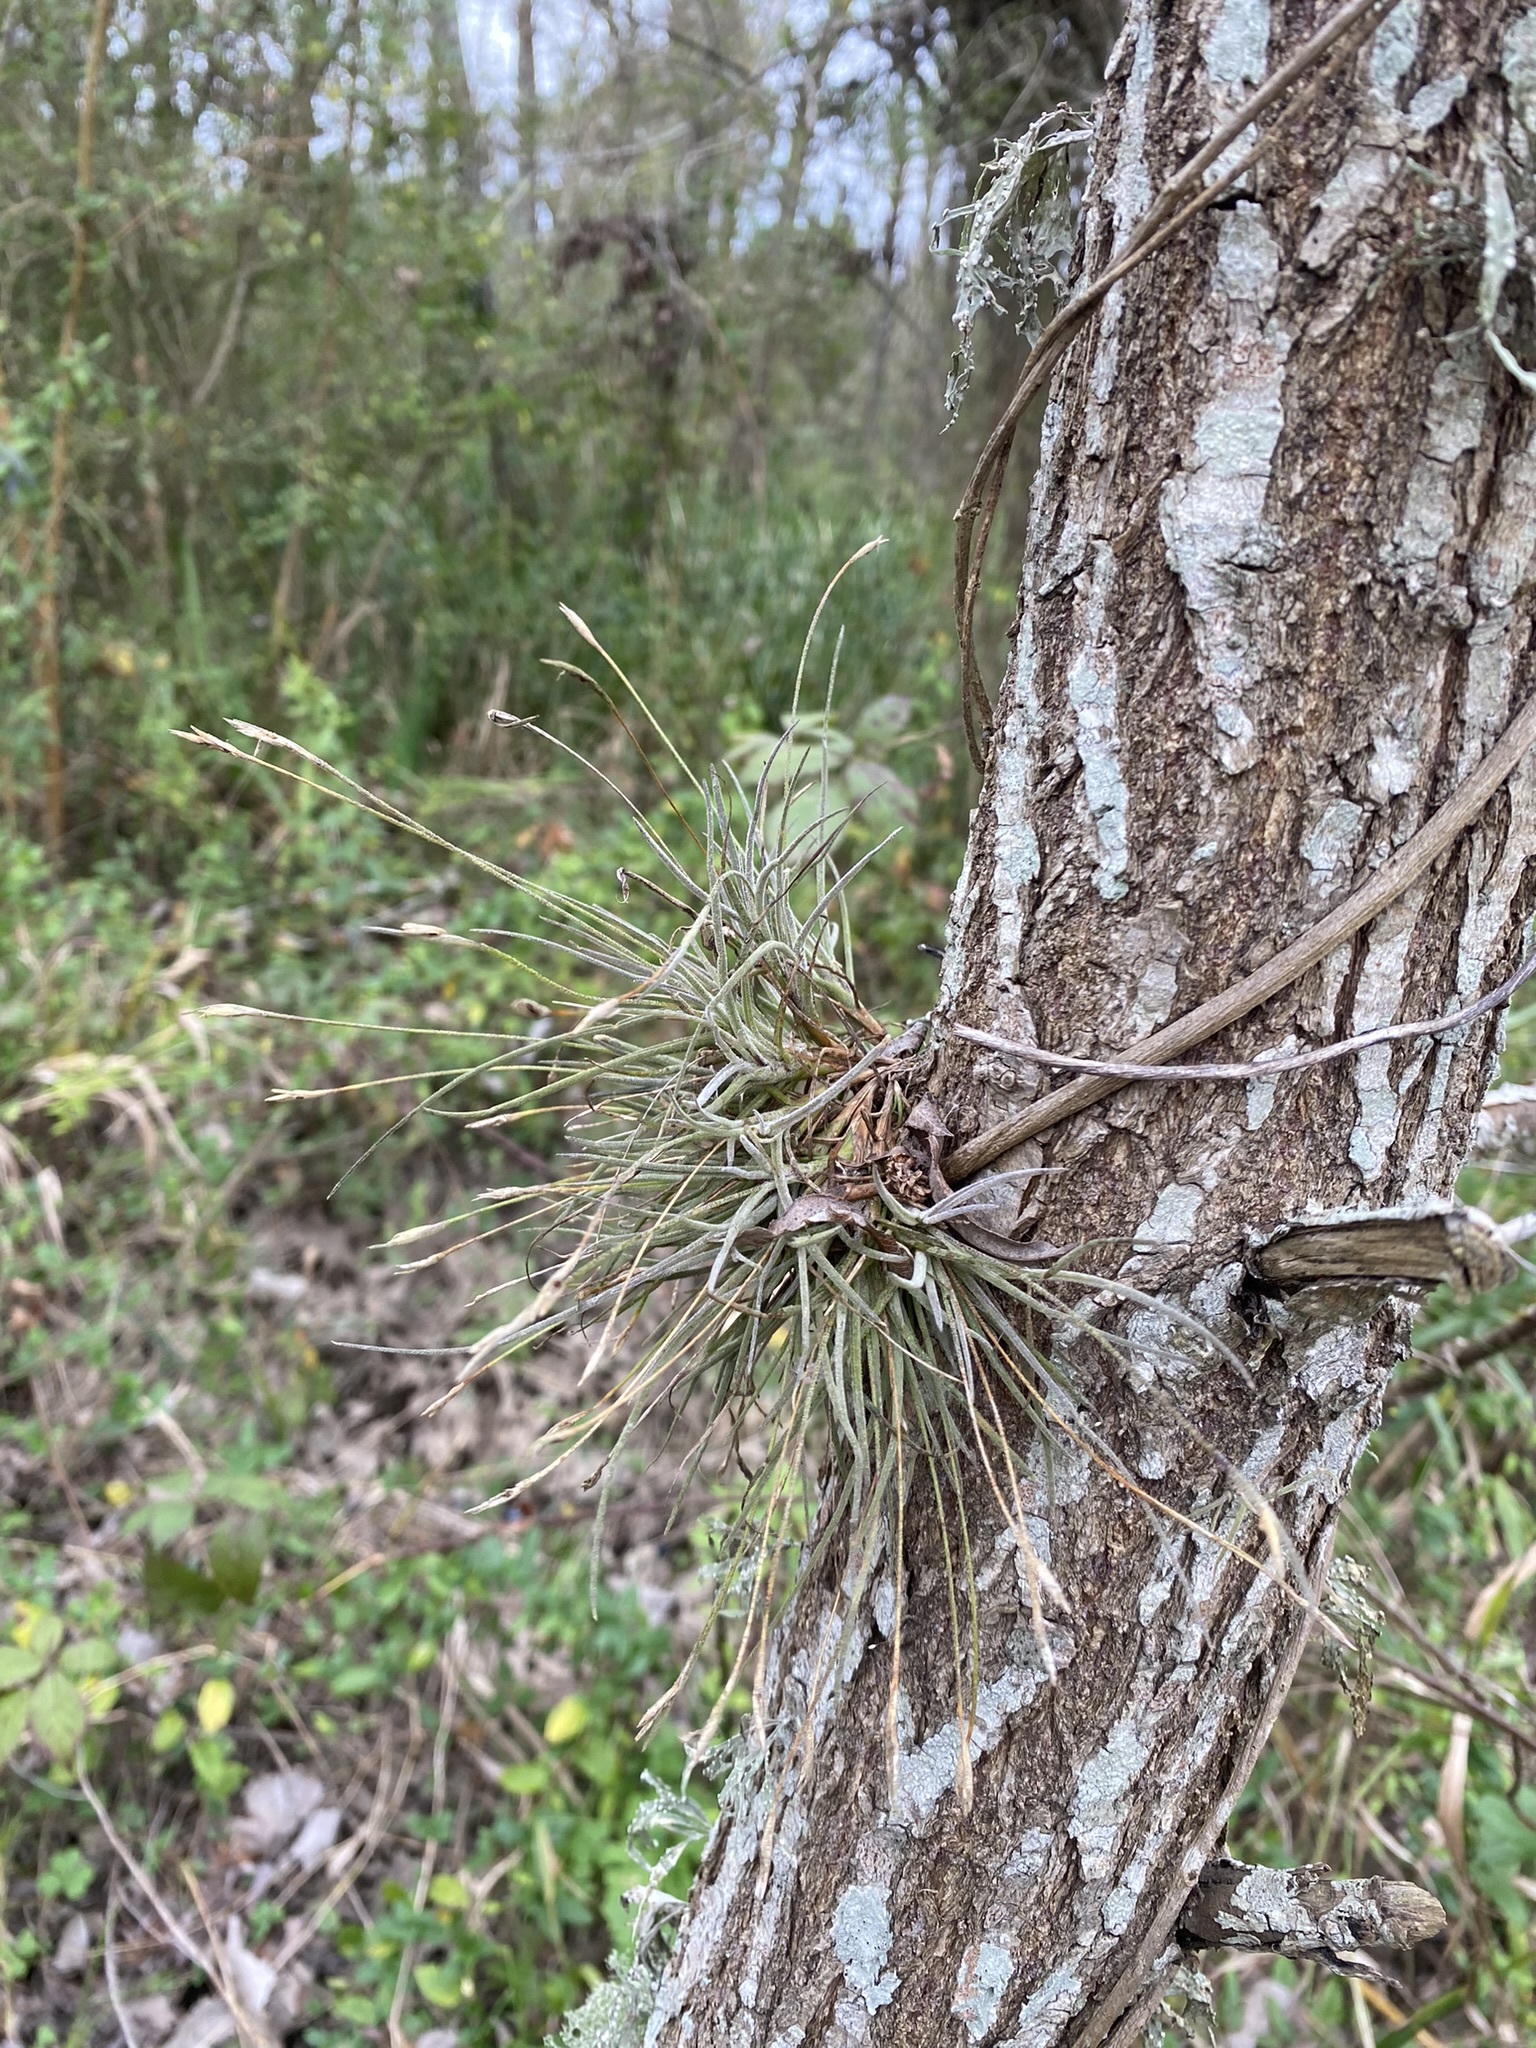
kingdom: Plantae
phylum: Tracheophyta
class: Liliopsida
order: Poales
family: Bromeliaceae
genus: Tillandsia
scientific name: Tillandsia recurvata
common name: Small ballmoss
